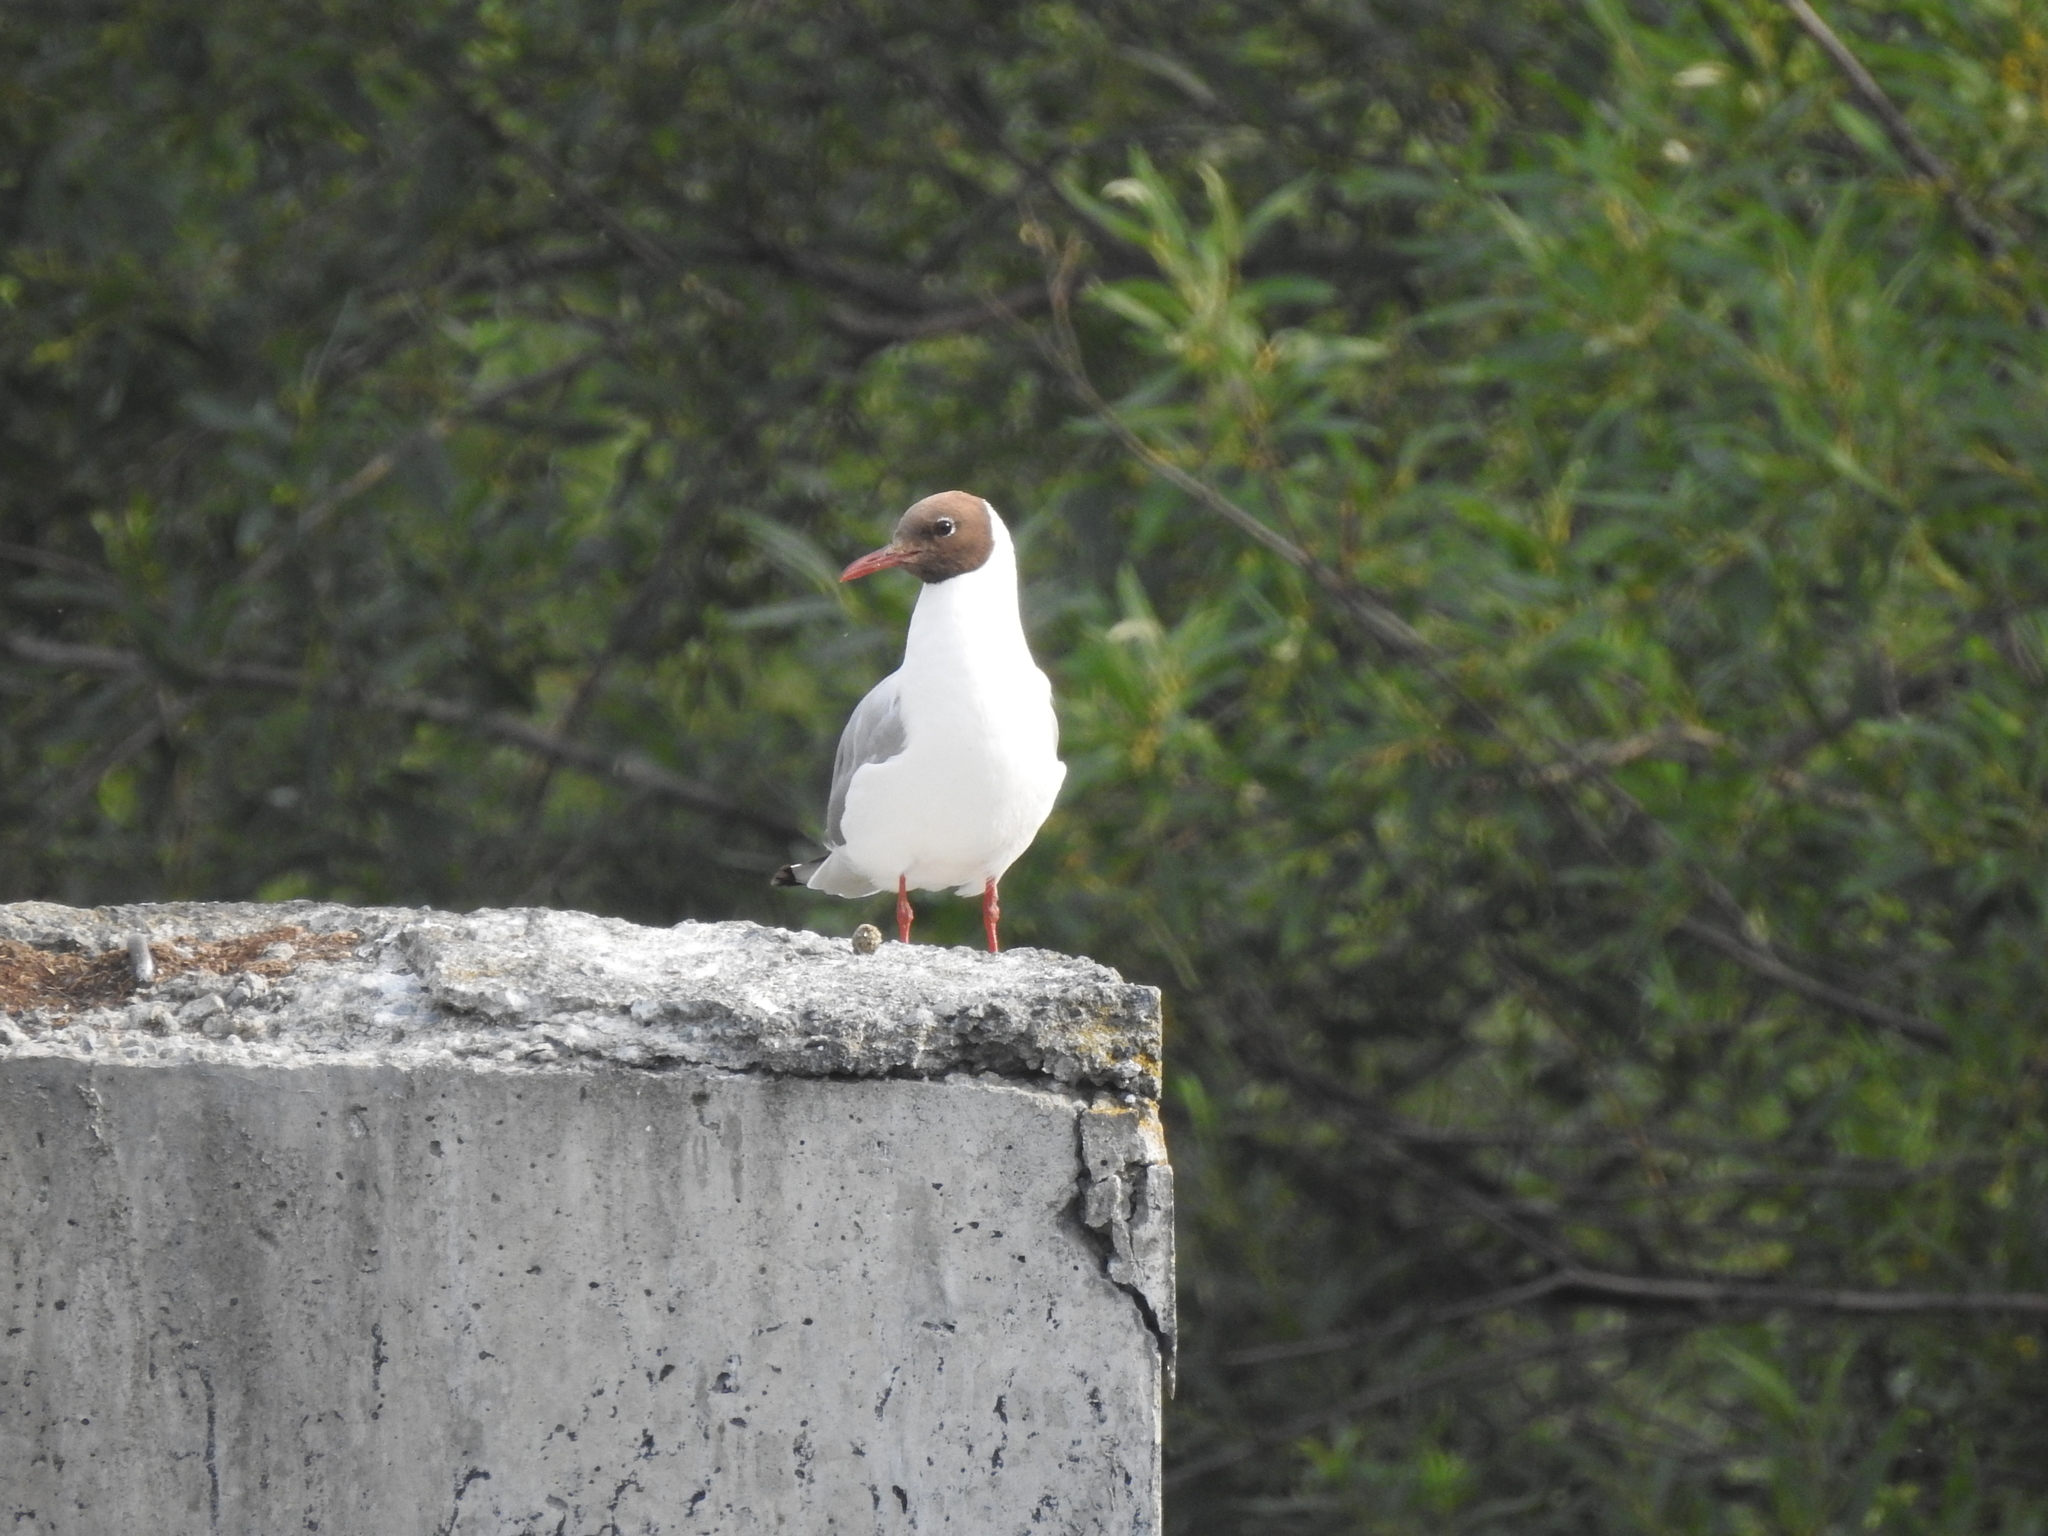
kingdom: Animalia
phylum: Chordata
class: Aves
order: Charadriiformes
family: Laridae
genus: Chroicocephalus
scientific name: Chroicocephalus ridibundus
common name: Black-headed gull
